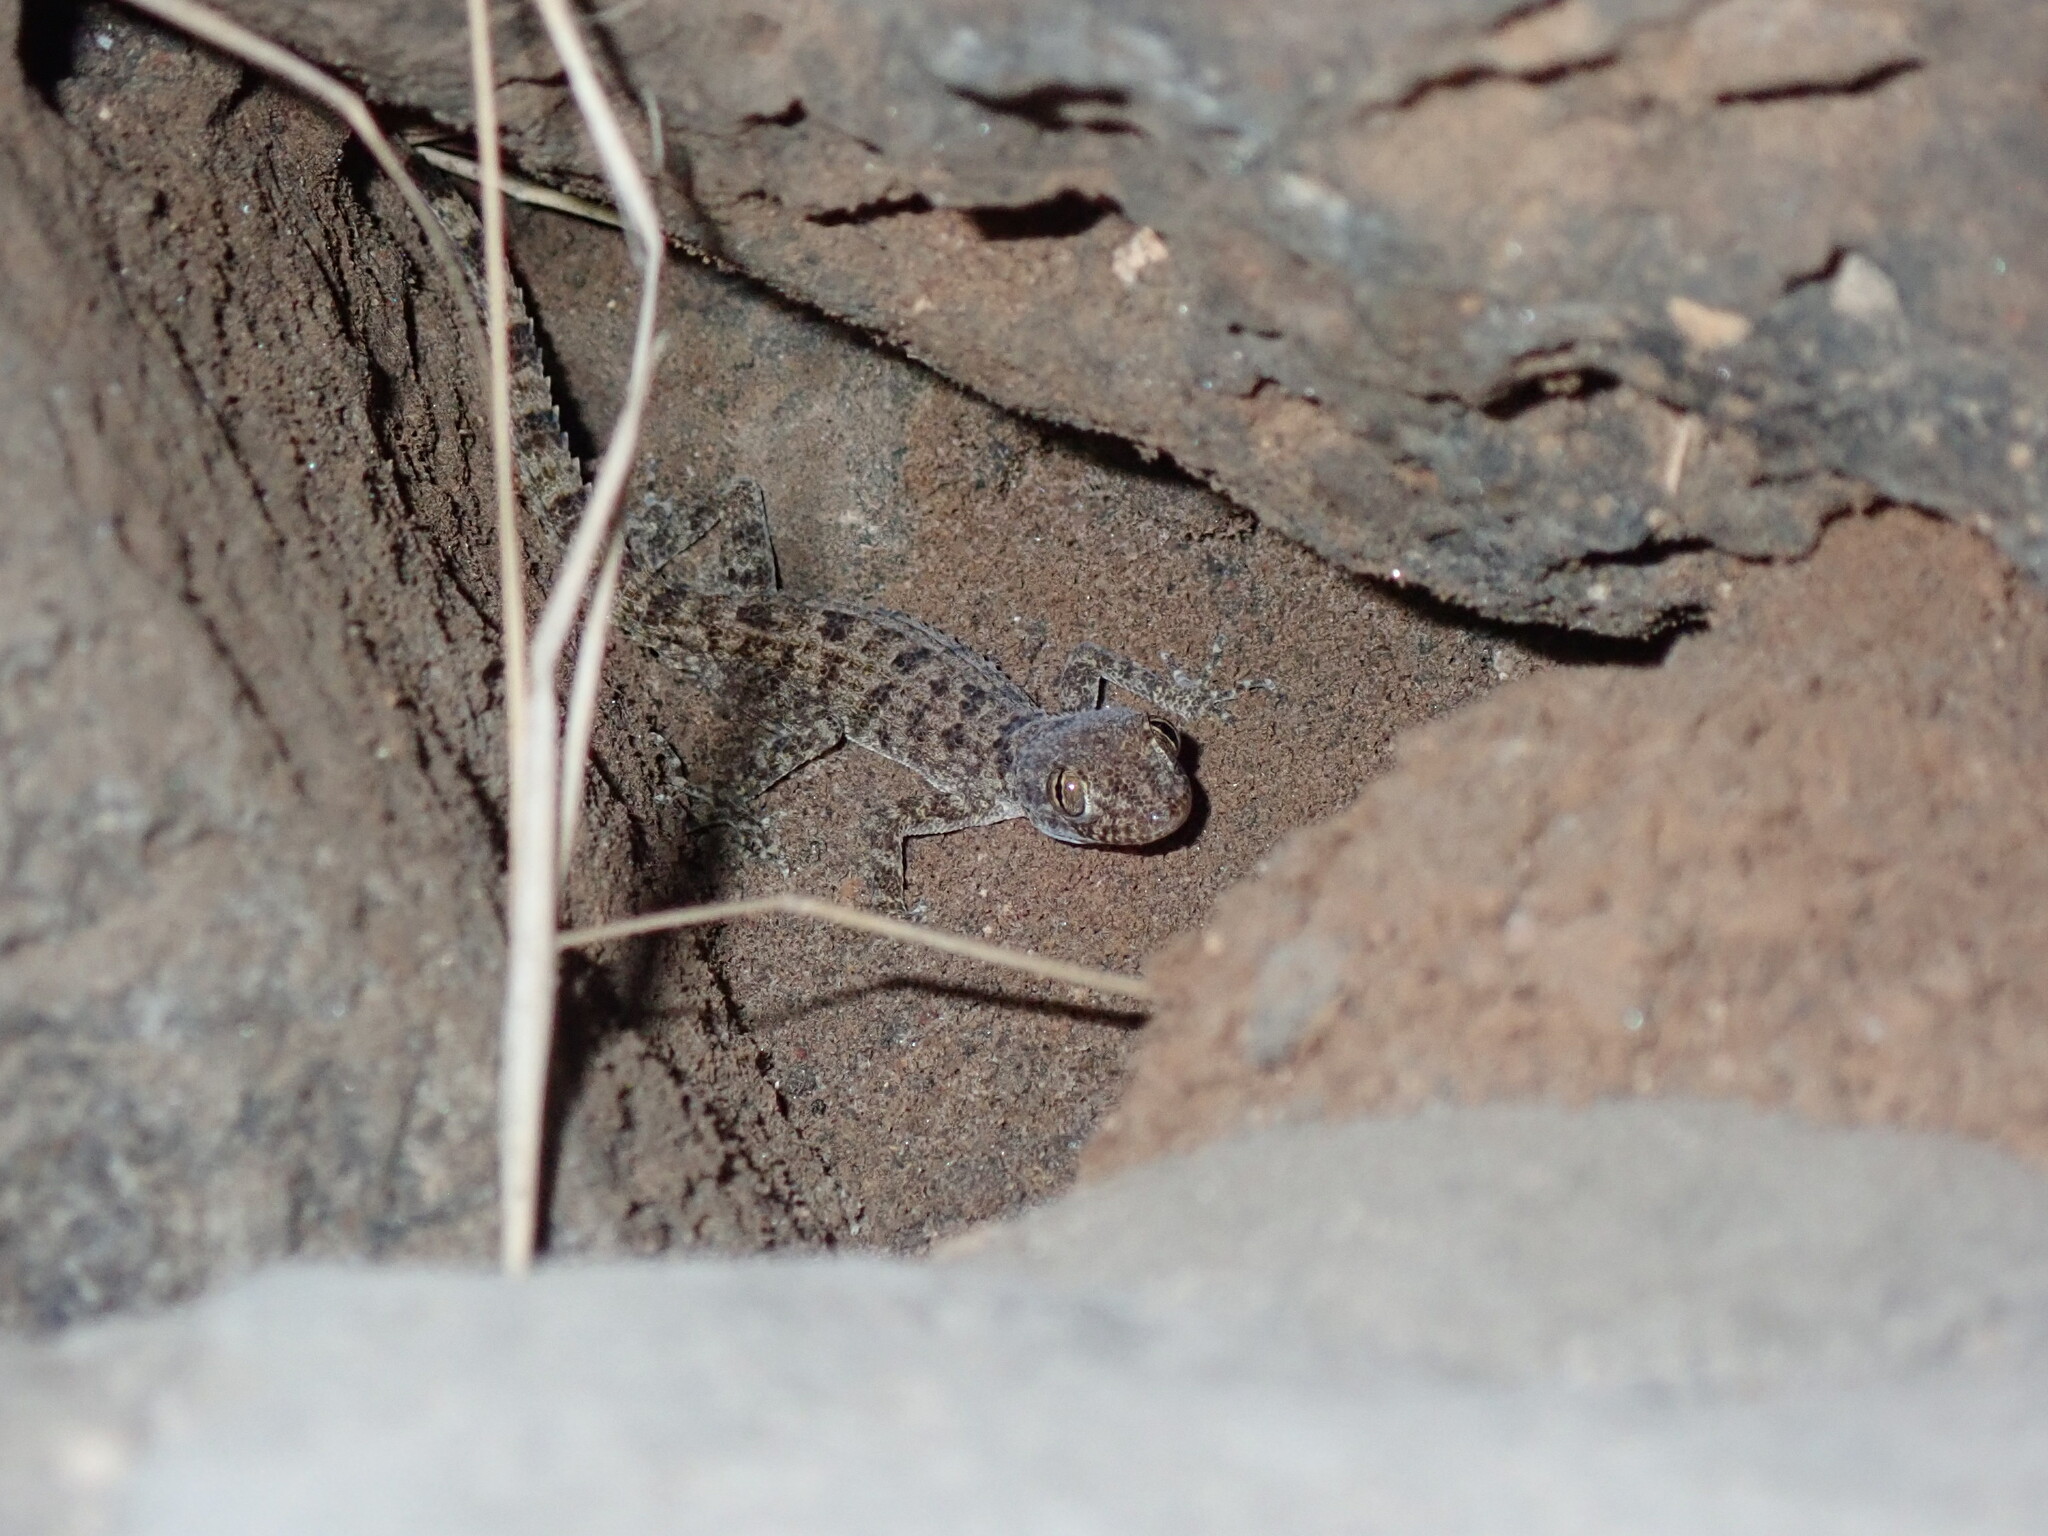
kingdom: Animalia
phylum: Chordata
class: Squamata
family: Gekkonidae
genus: Cyrtopodion
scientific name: Cyrtopodion scabrum
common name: Rough-tailed gecko
